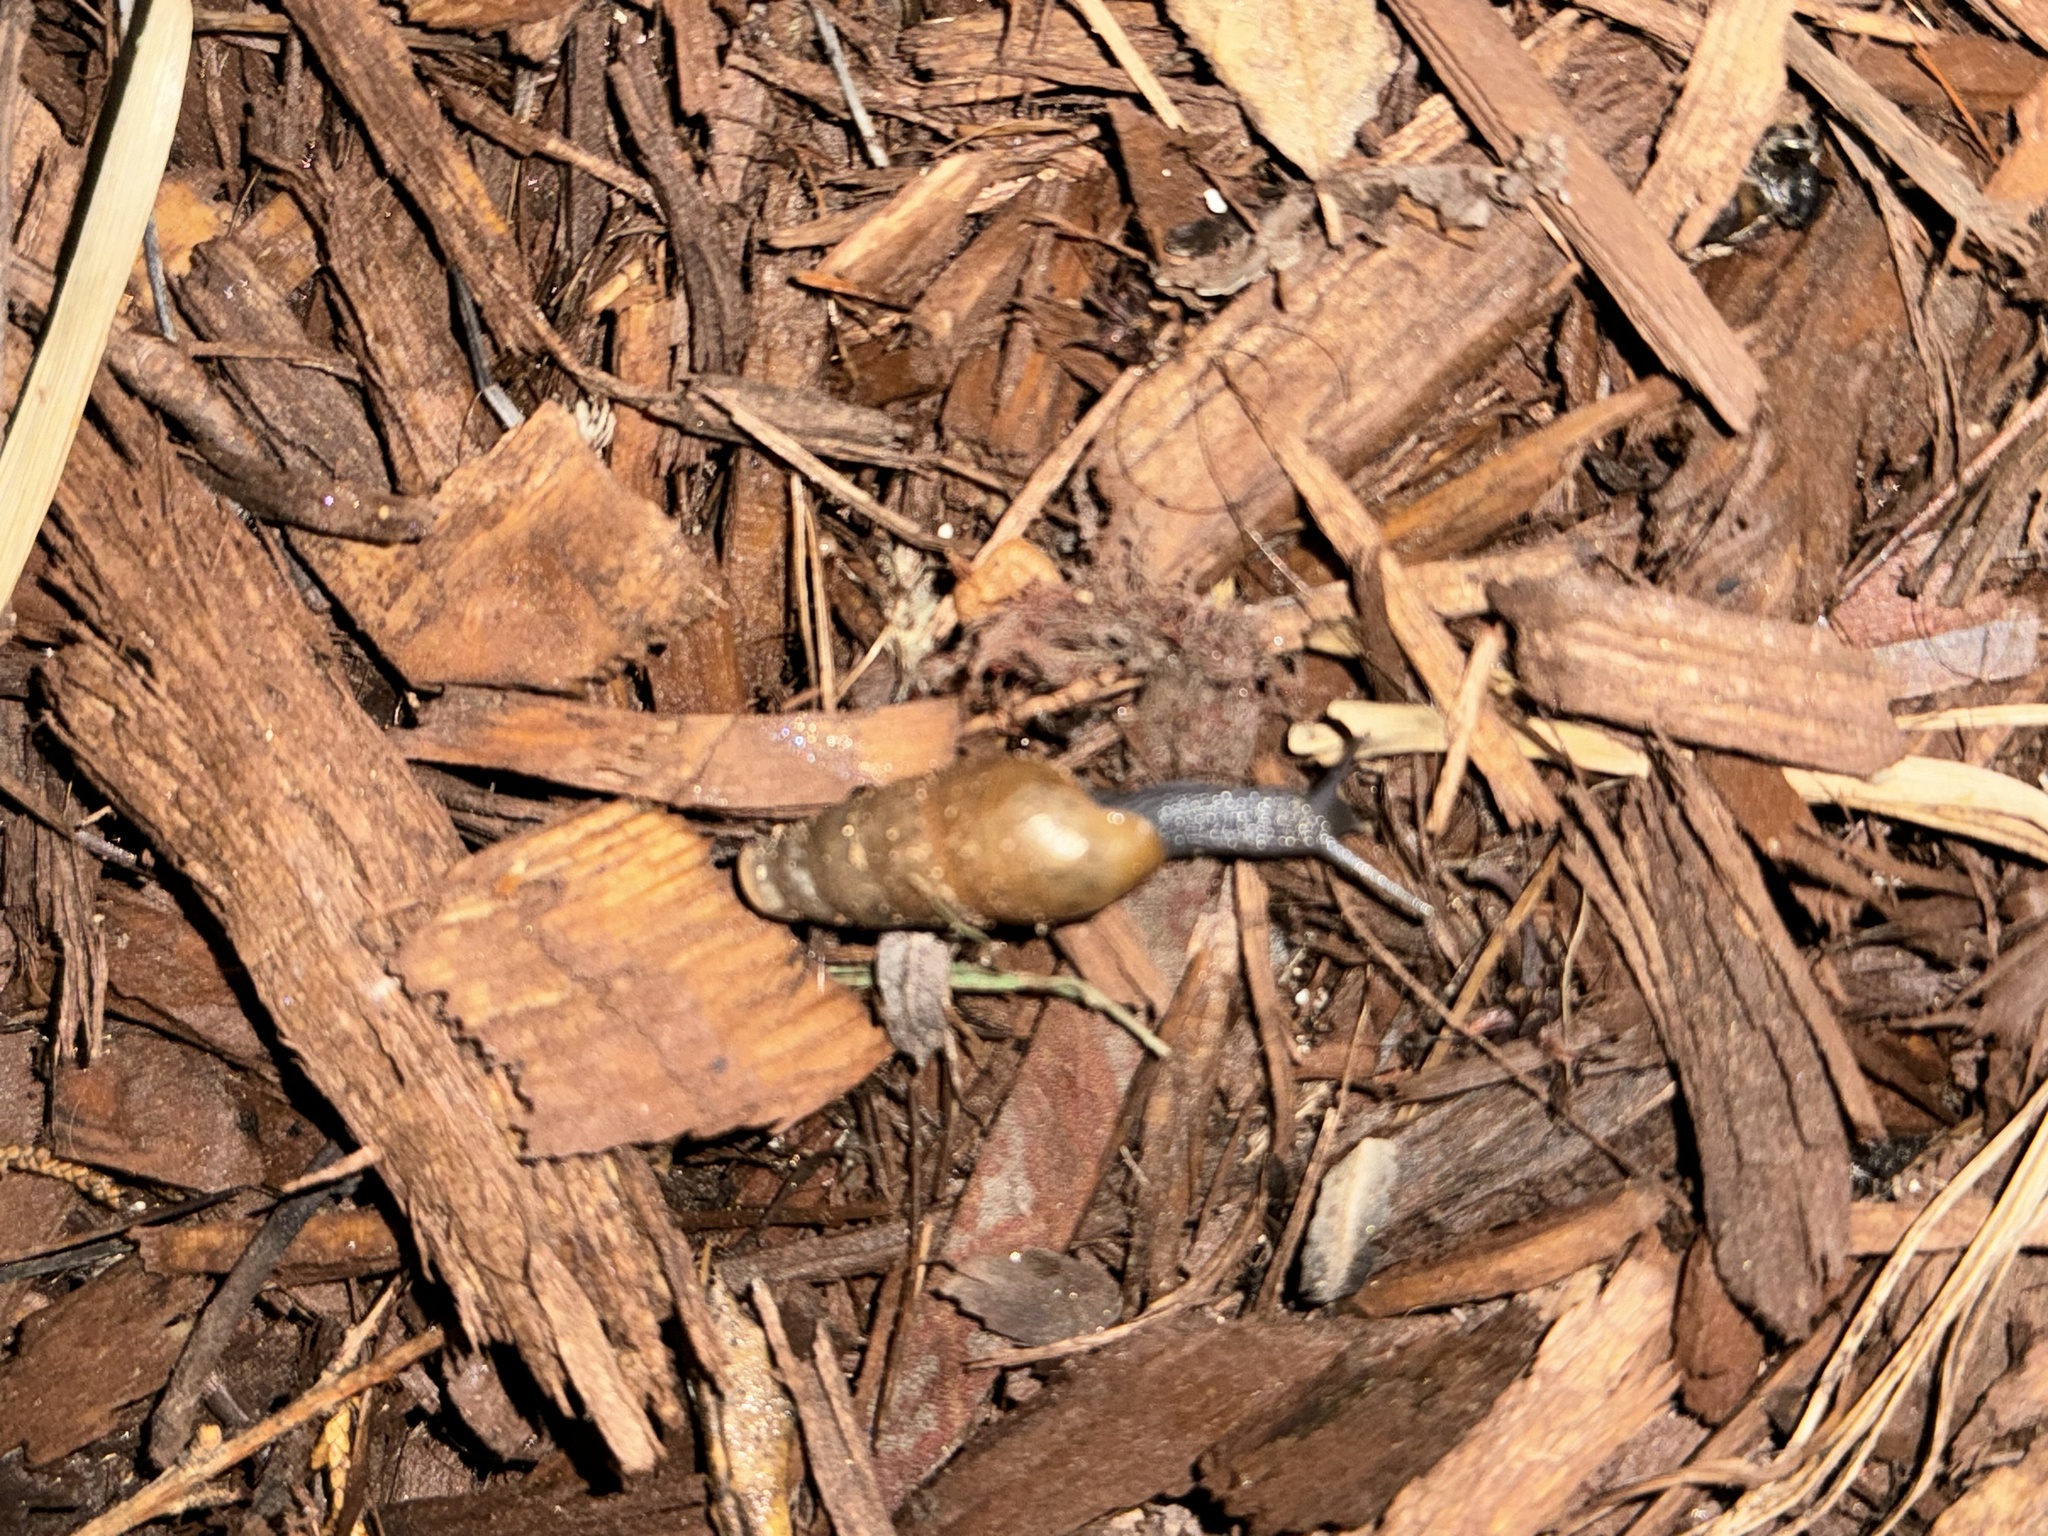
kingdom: Animalia
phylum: Mollusca
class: Gastropoda
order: Stylommatophora
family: Achatinidae
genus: Rumina
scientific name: Rumina decollata
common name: Decollate snail
